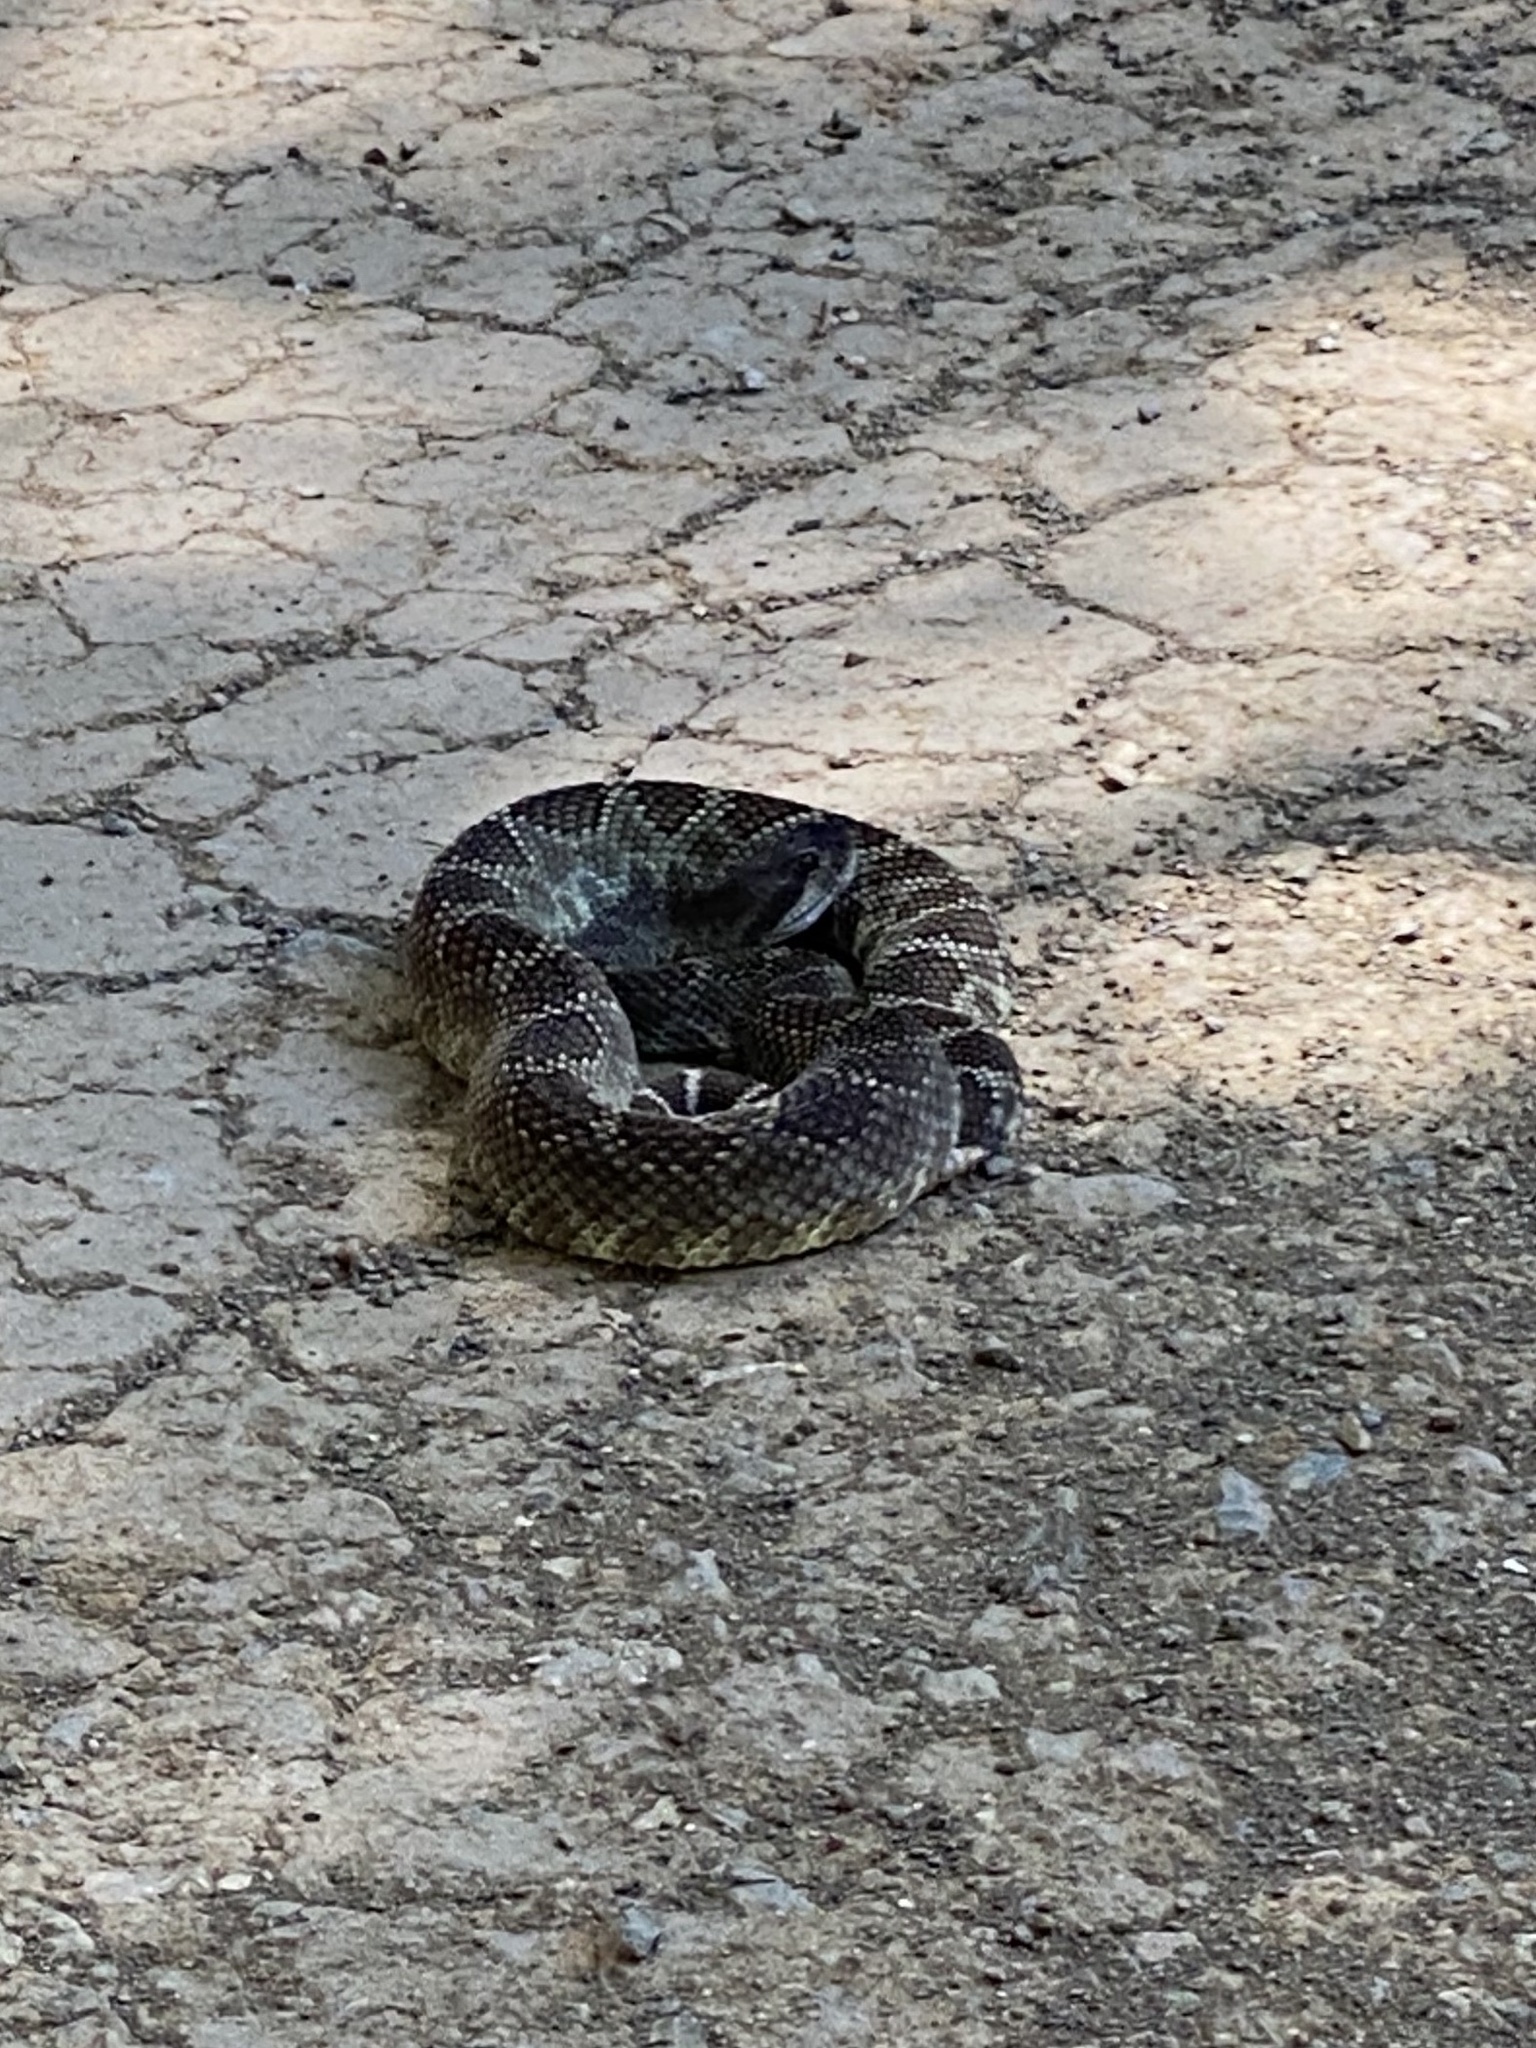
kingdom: Animalia
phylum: Chordata
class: Squamata
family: Viperidae
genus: Crotalus
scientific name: Crotalus oreganus
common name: Abyssus
